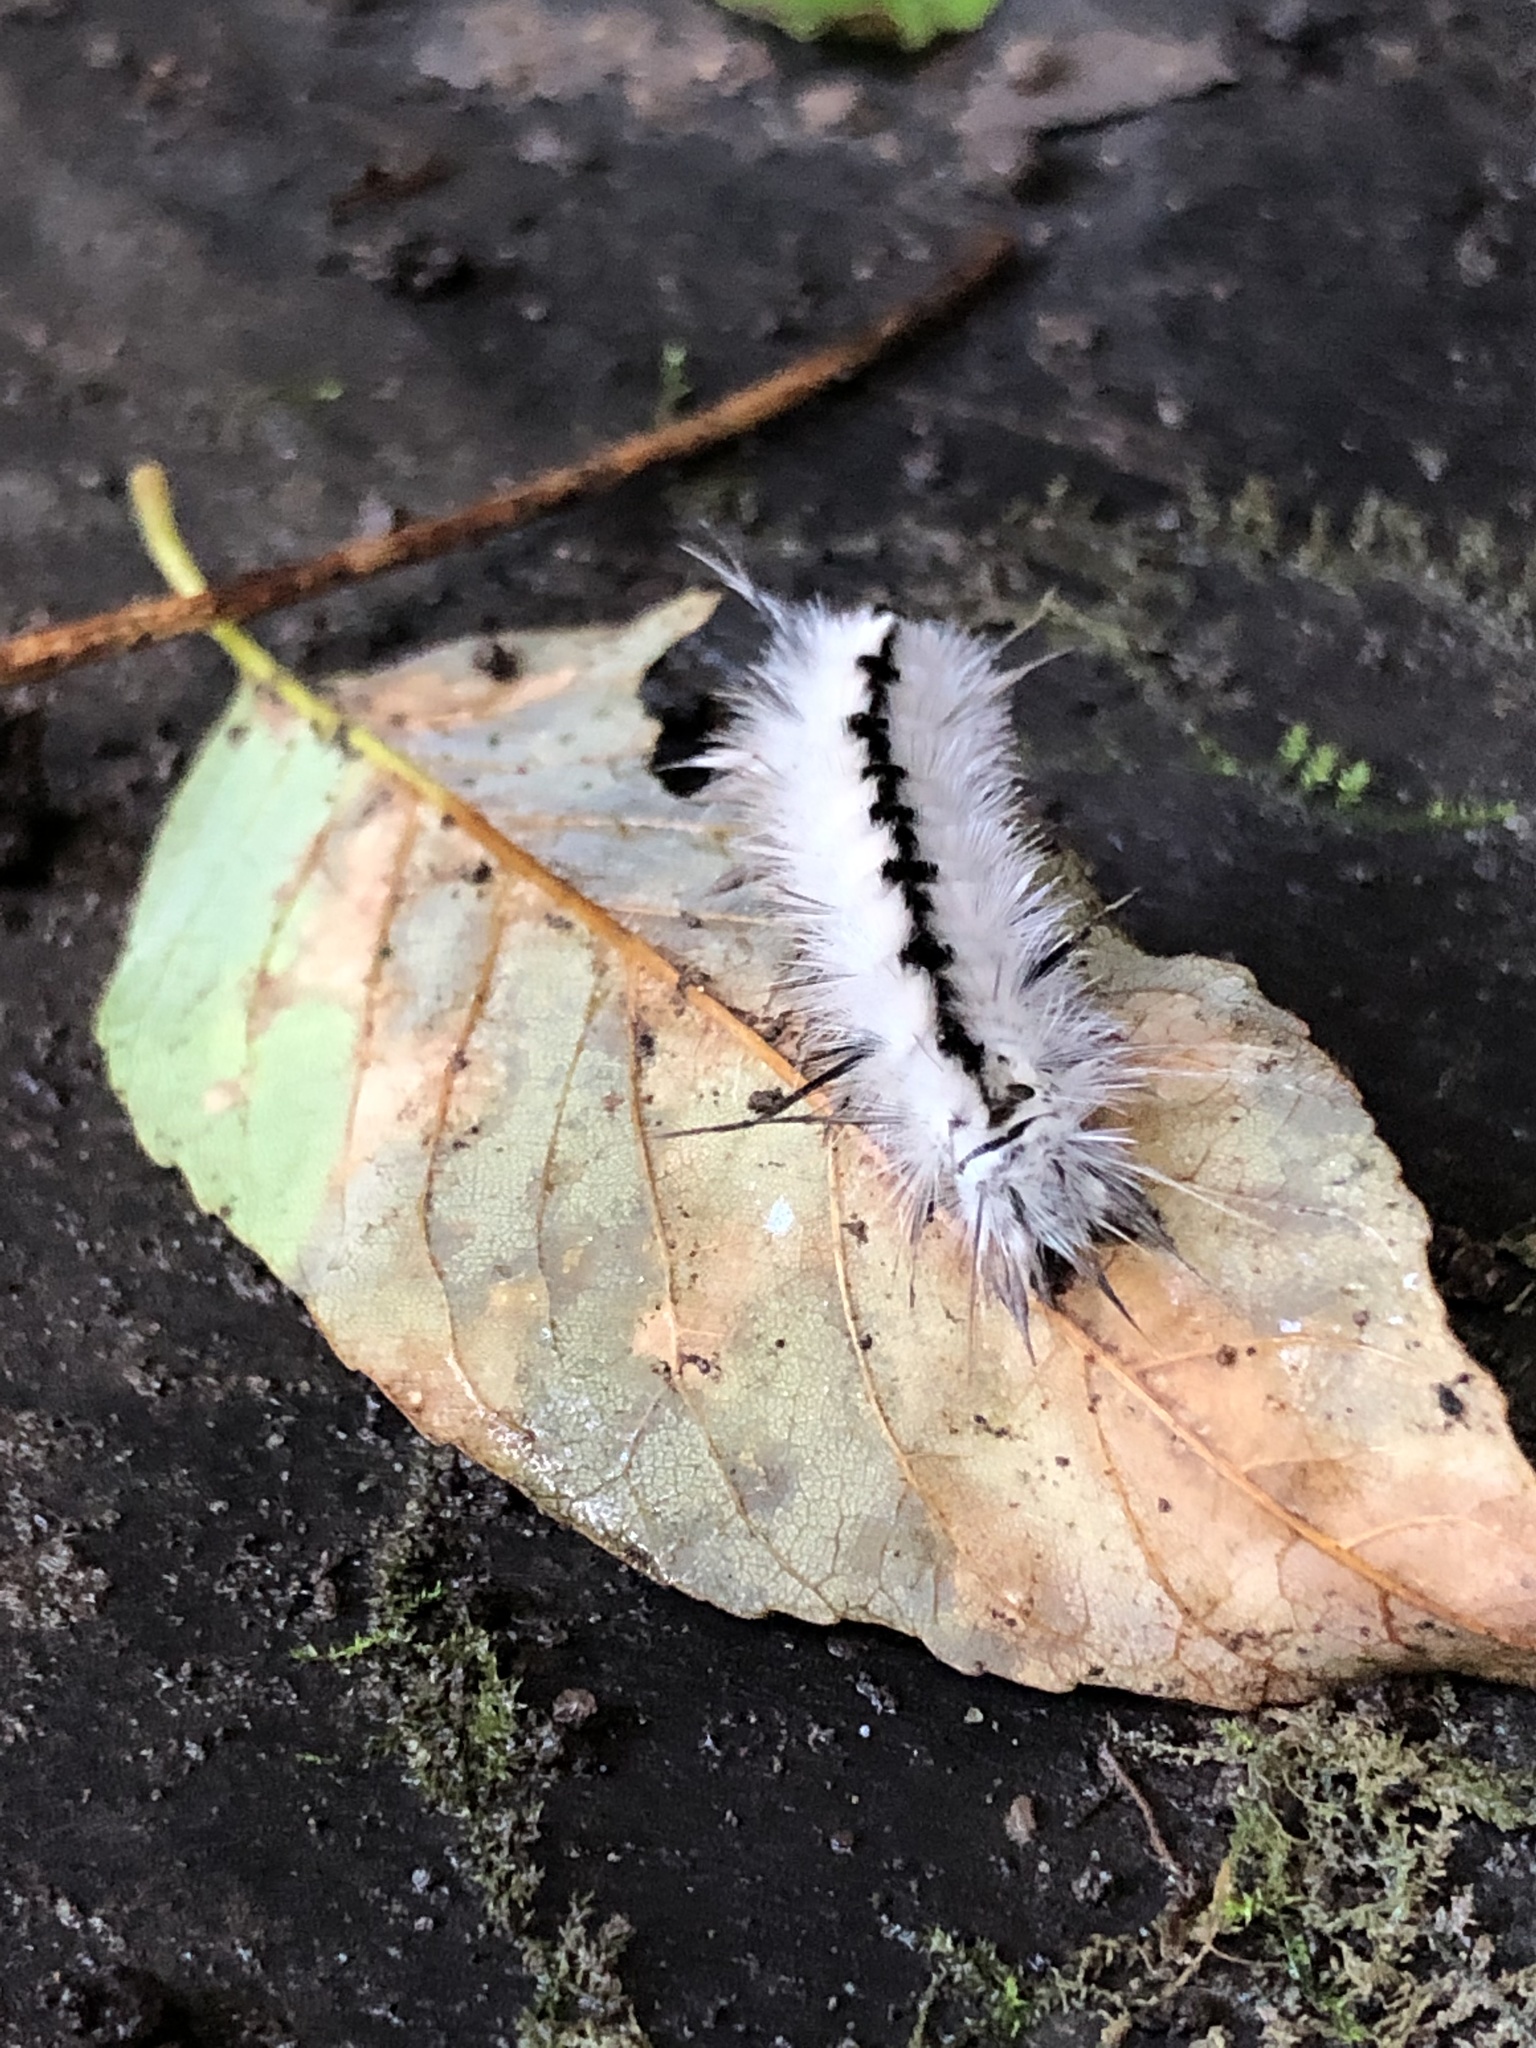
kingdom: Animalia
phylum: Arthropoda
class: Insecta
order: Lepidoptera
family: Erebidae
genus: Lophocampa
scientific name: Lophocampa caryae
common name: Hickory tussock moth
